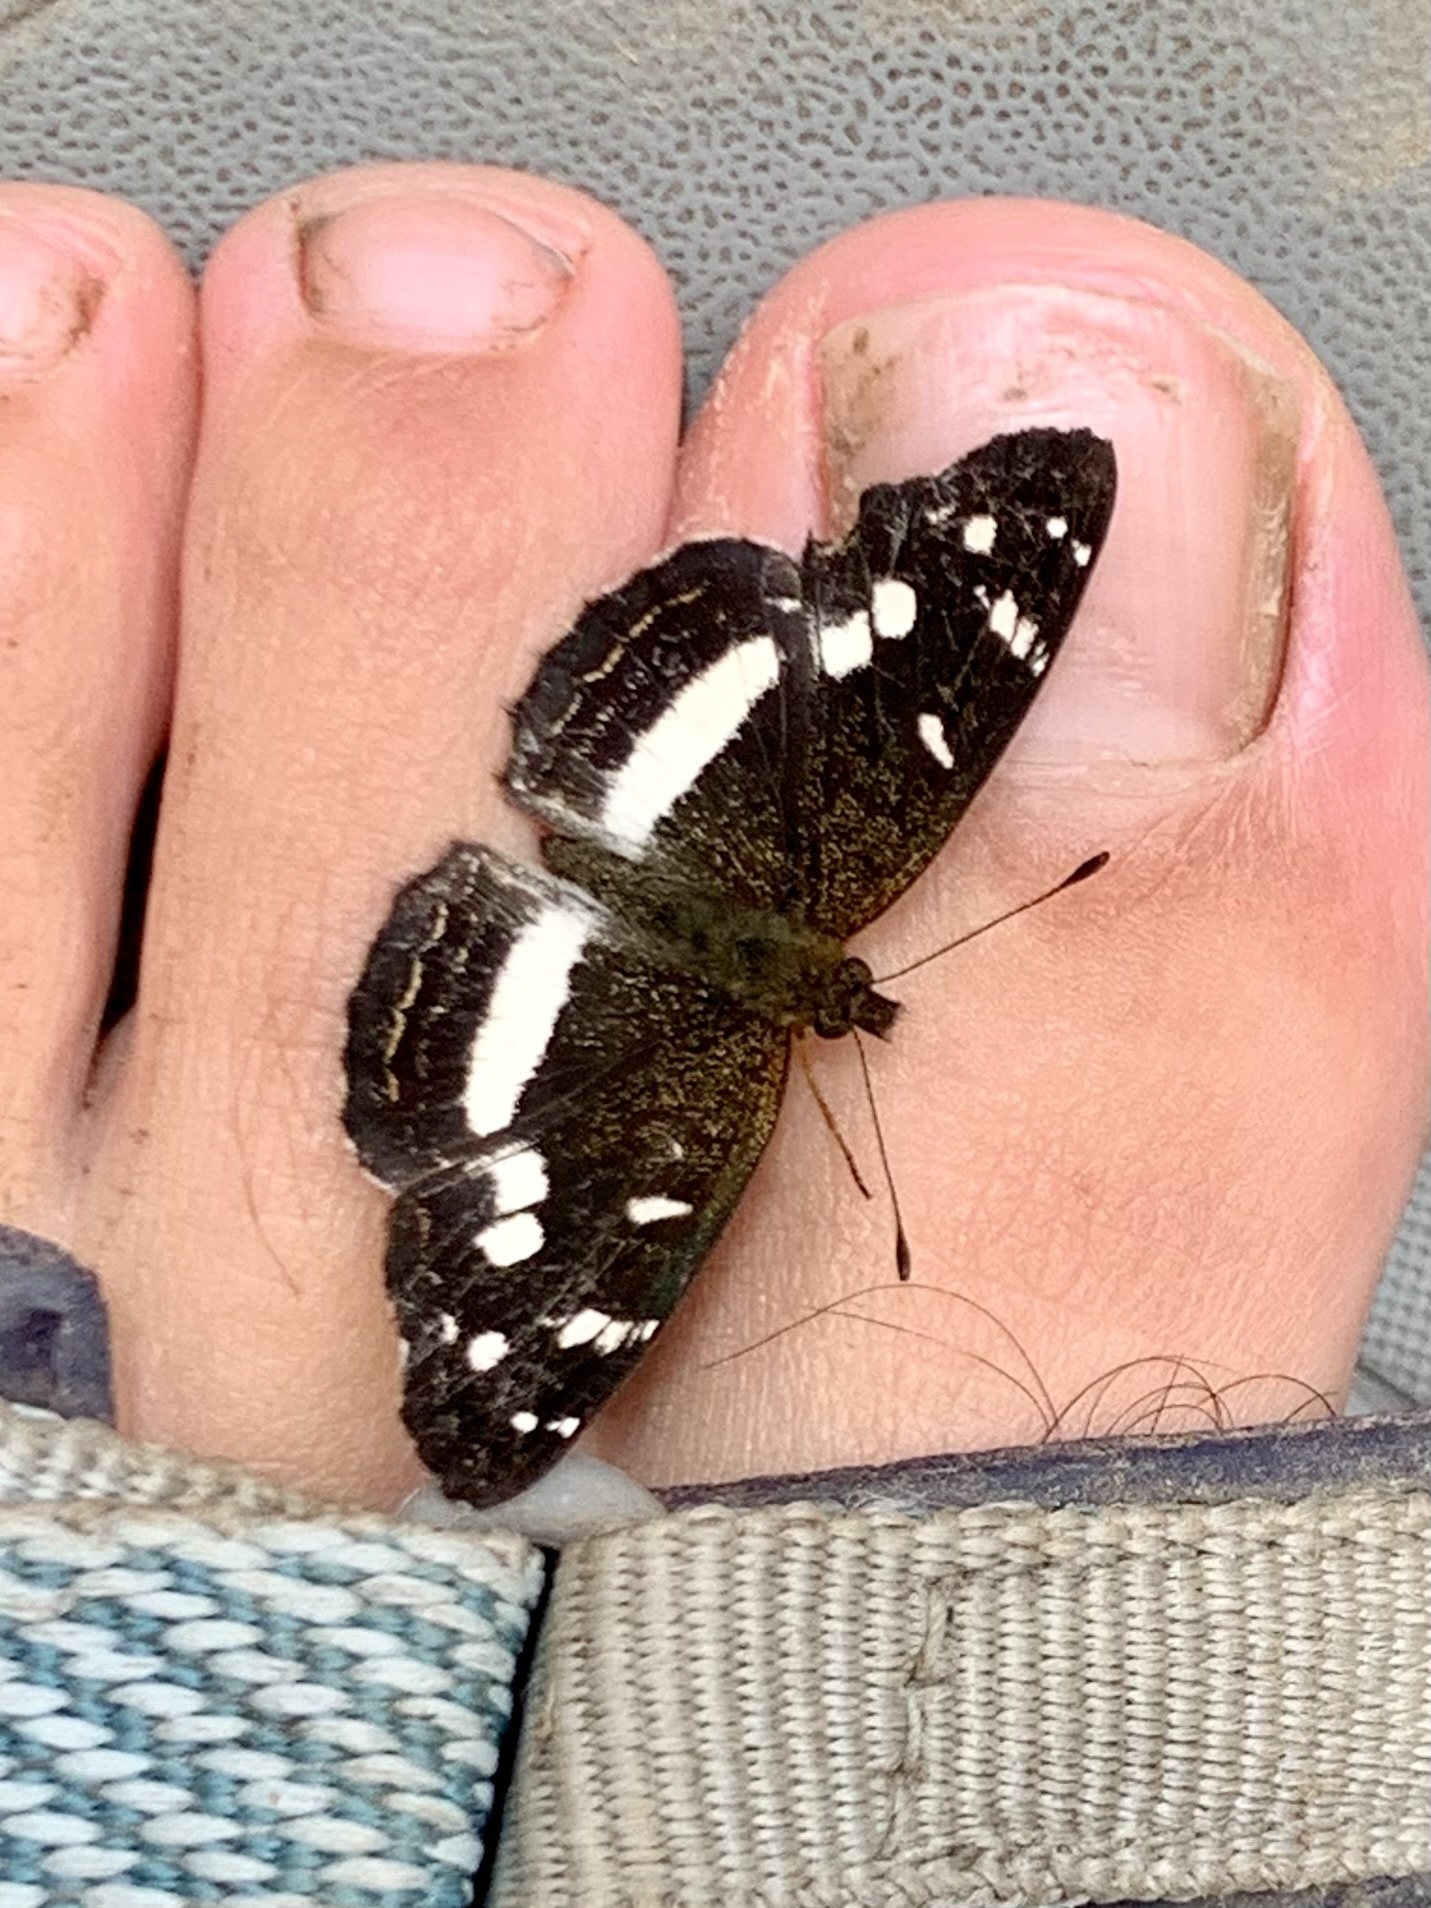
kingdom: Animalia
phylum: Arthropoda
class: Insecta
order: Lepidoptera
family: Nymphalidae
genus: Janatella
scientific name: Janatella fellula
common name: Colombian crescent
